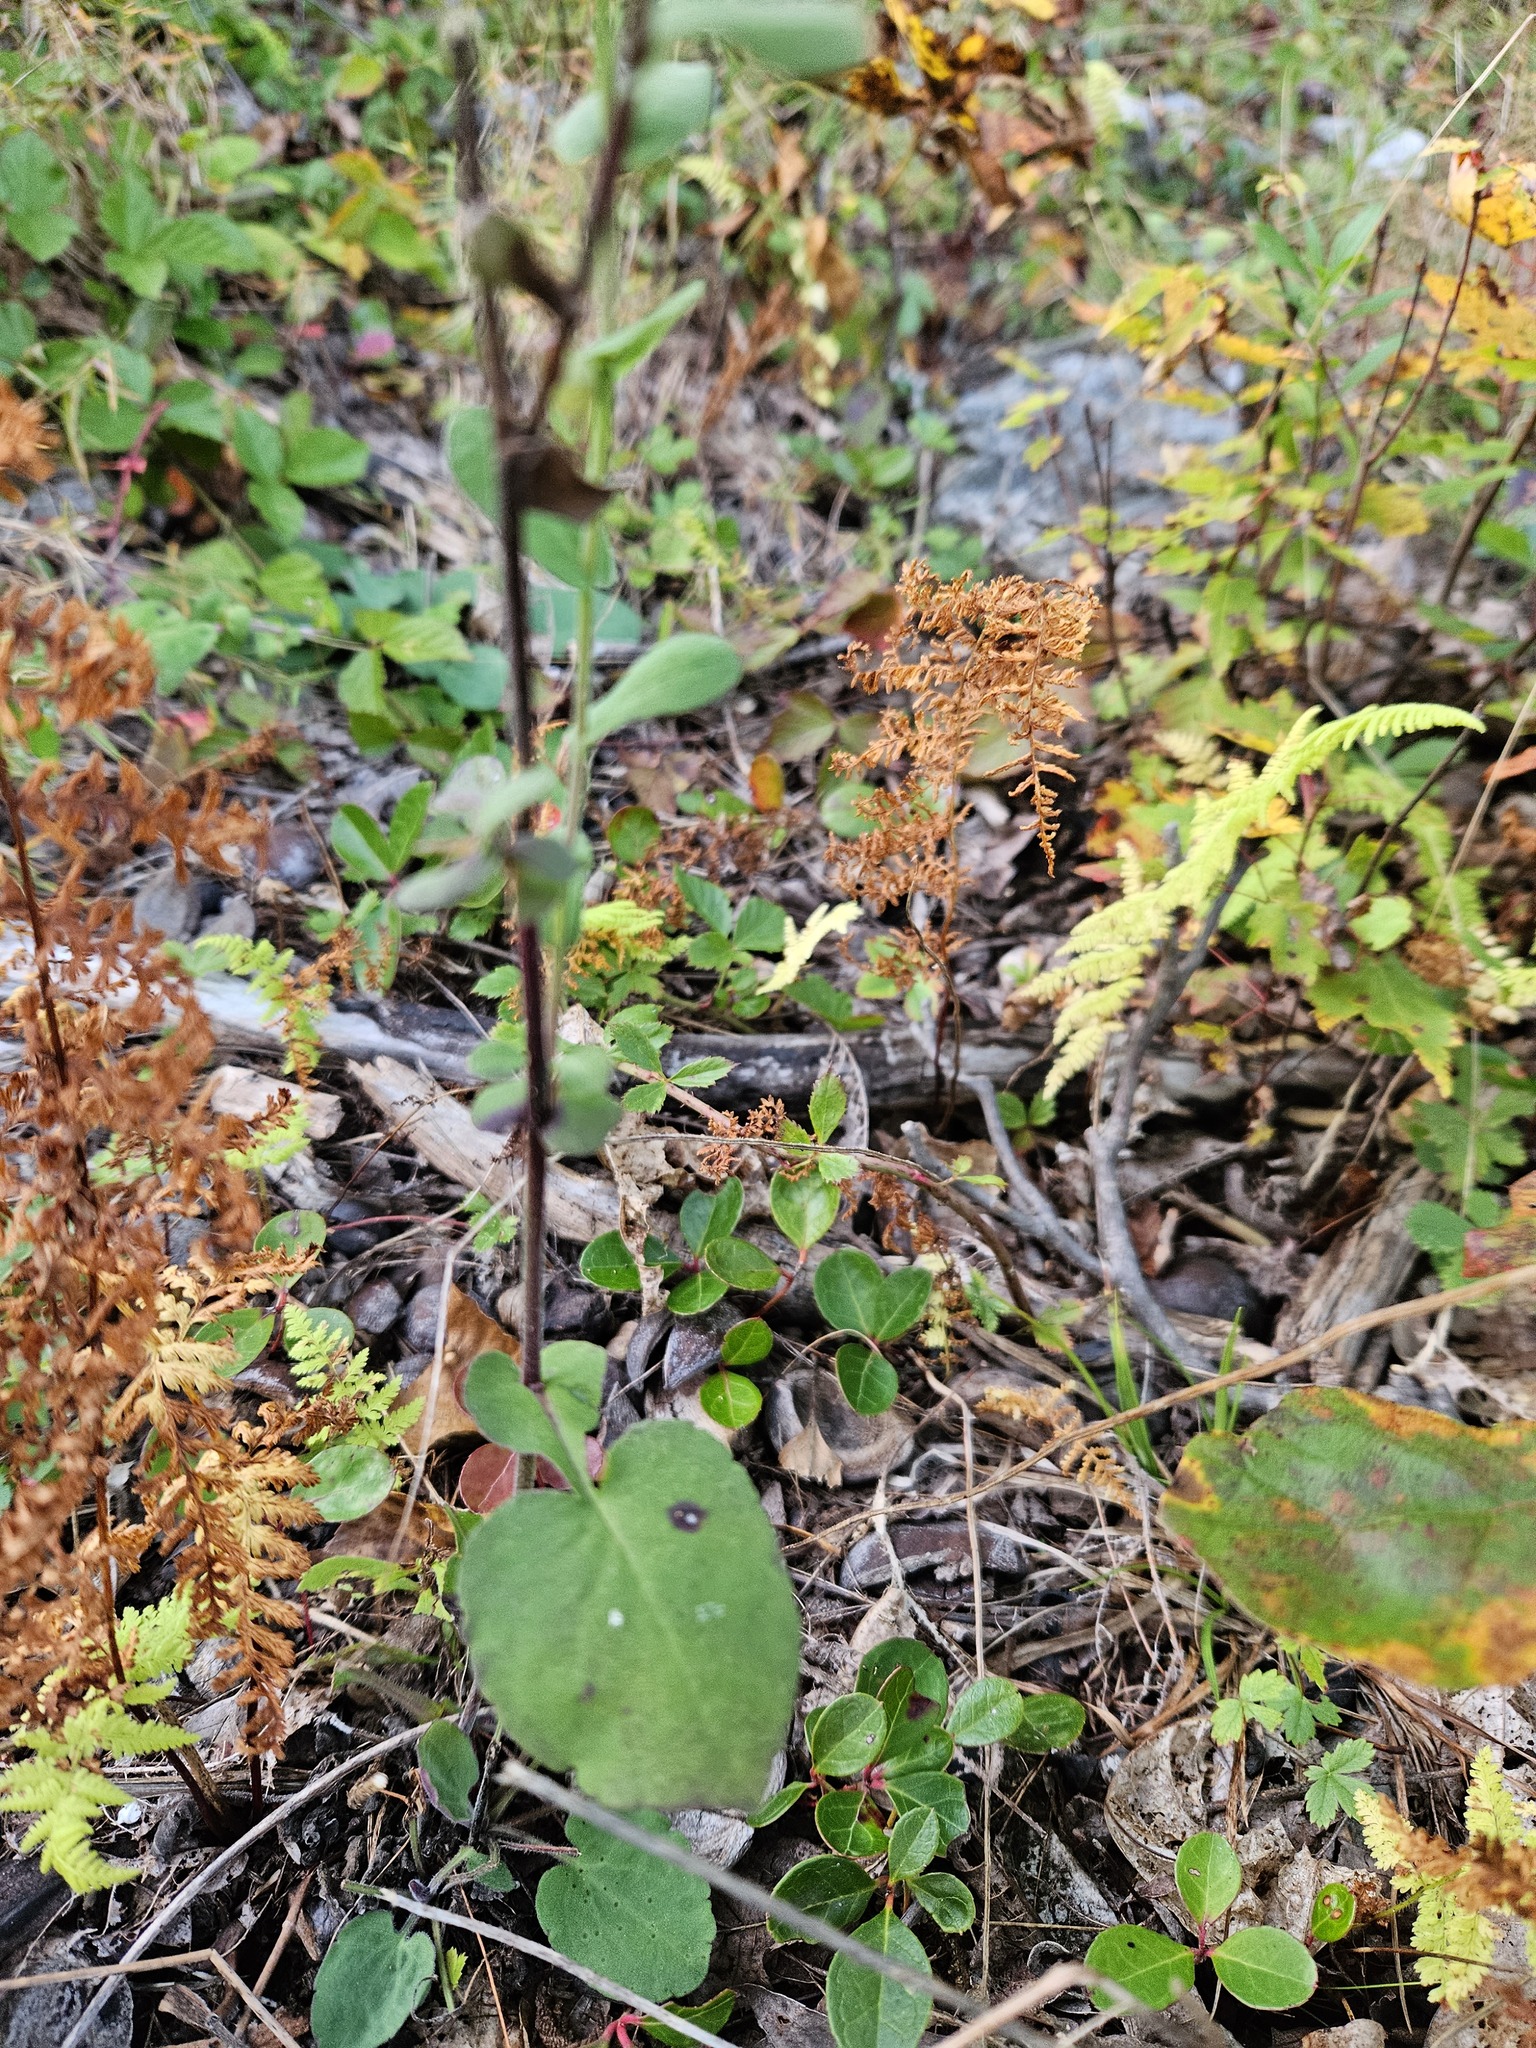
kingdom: Plantae
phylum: Tracheophyta
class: Magnoliopsida
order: Asterales
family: Asteraceae
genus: Symphyotrichum
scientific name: Symphyotrichum undulatum
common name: Clasping heart-leaf aster
